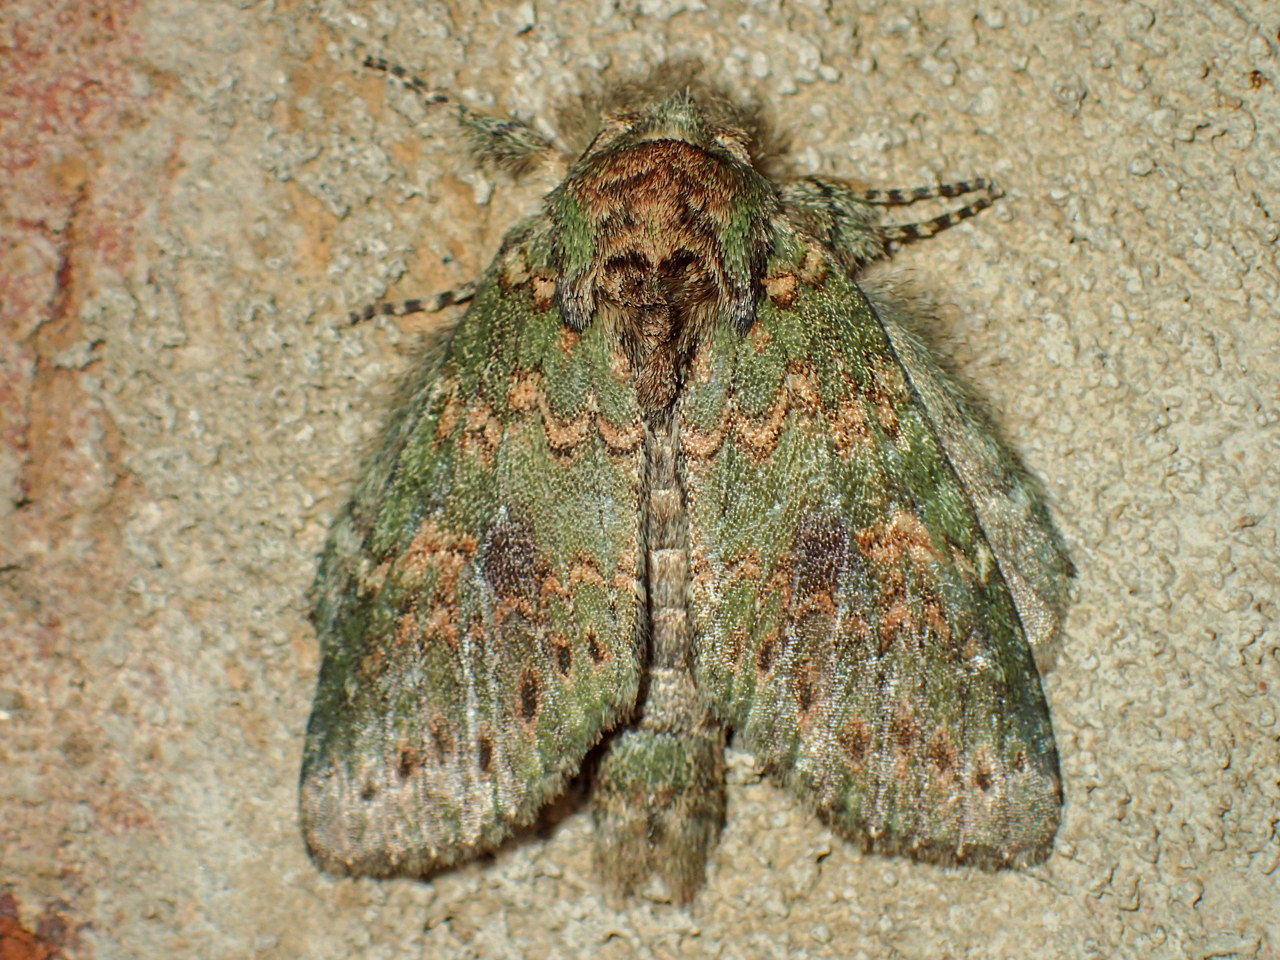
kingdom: Animalia
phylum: Arthropoda
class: Insecta
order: Lepidoptera
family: Notodontidae
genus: Disphragis
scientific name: Disphragis Cecrita biundata
